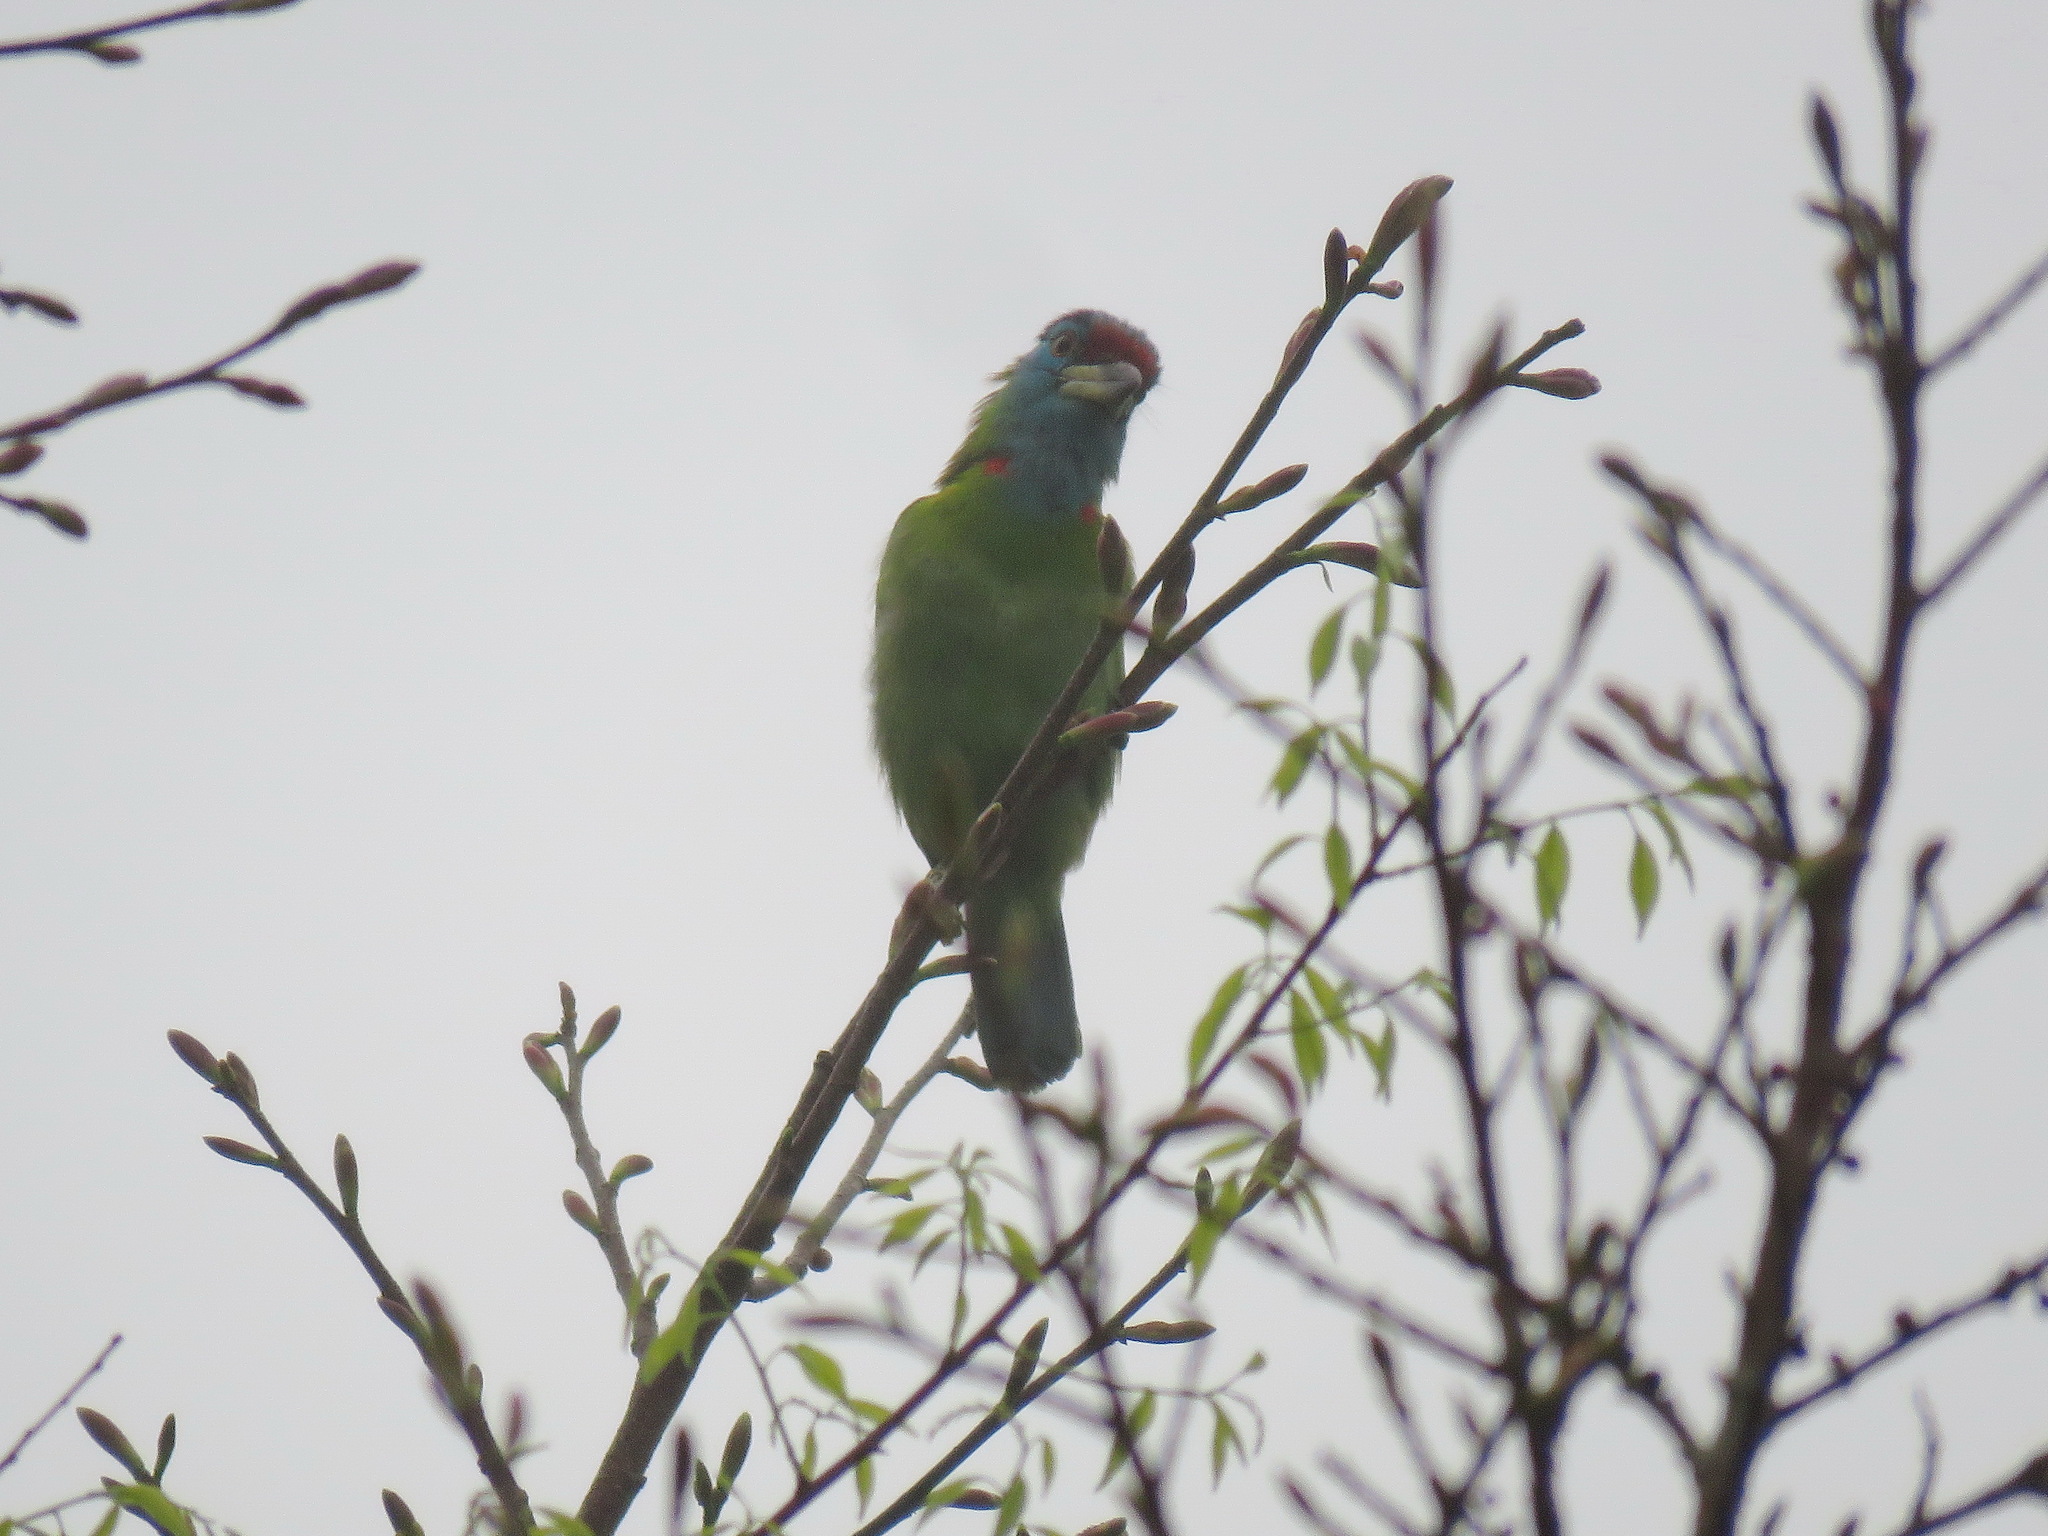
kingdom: Animalia
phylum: Chordata
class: Aves
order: Piciformes
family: Megalaimidae
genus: Psilopogon
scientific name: Psilopogon asiaticus
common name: Blue-throated barbet
